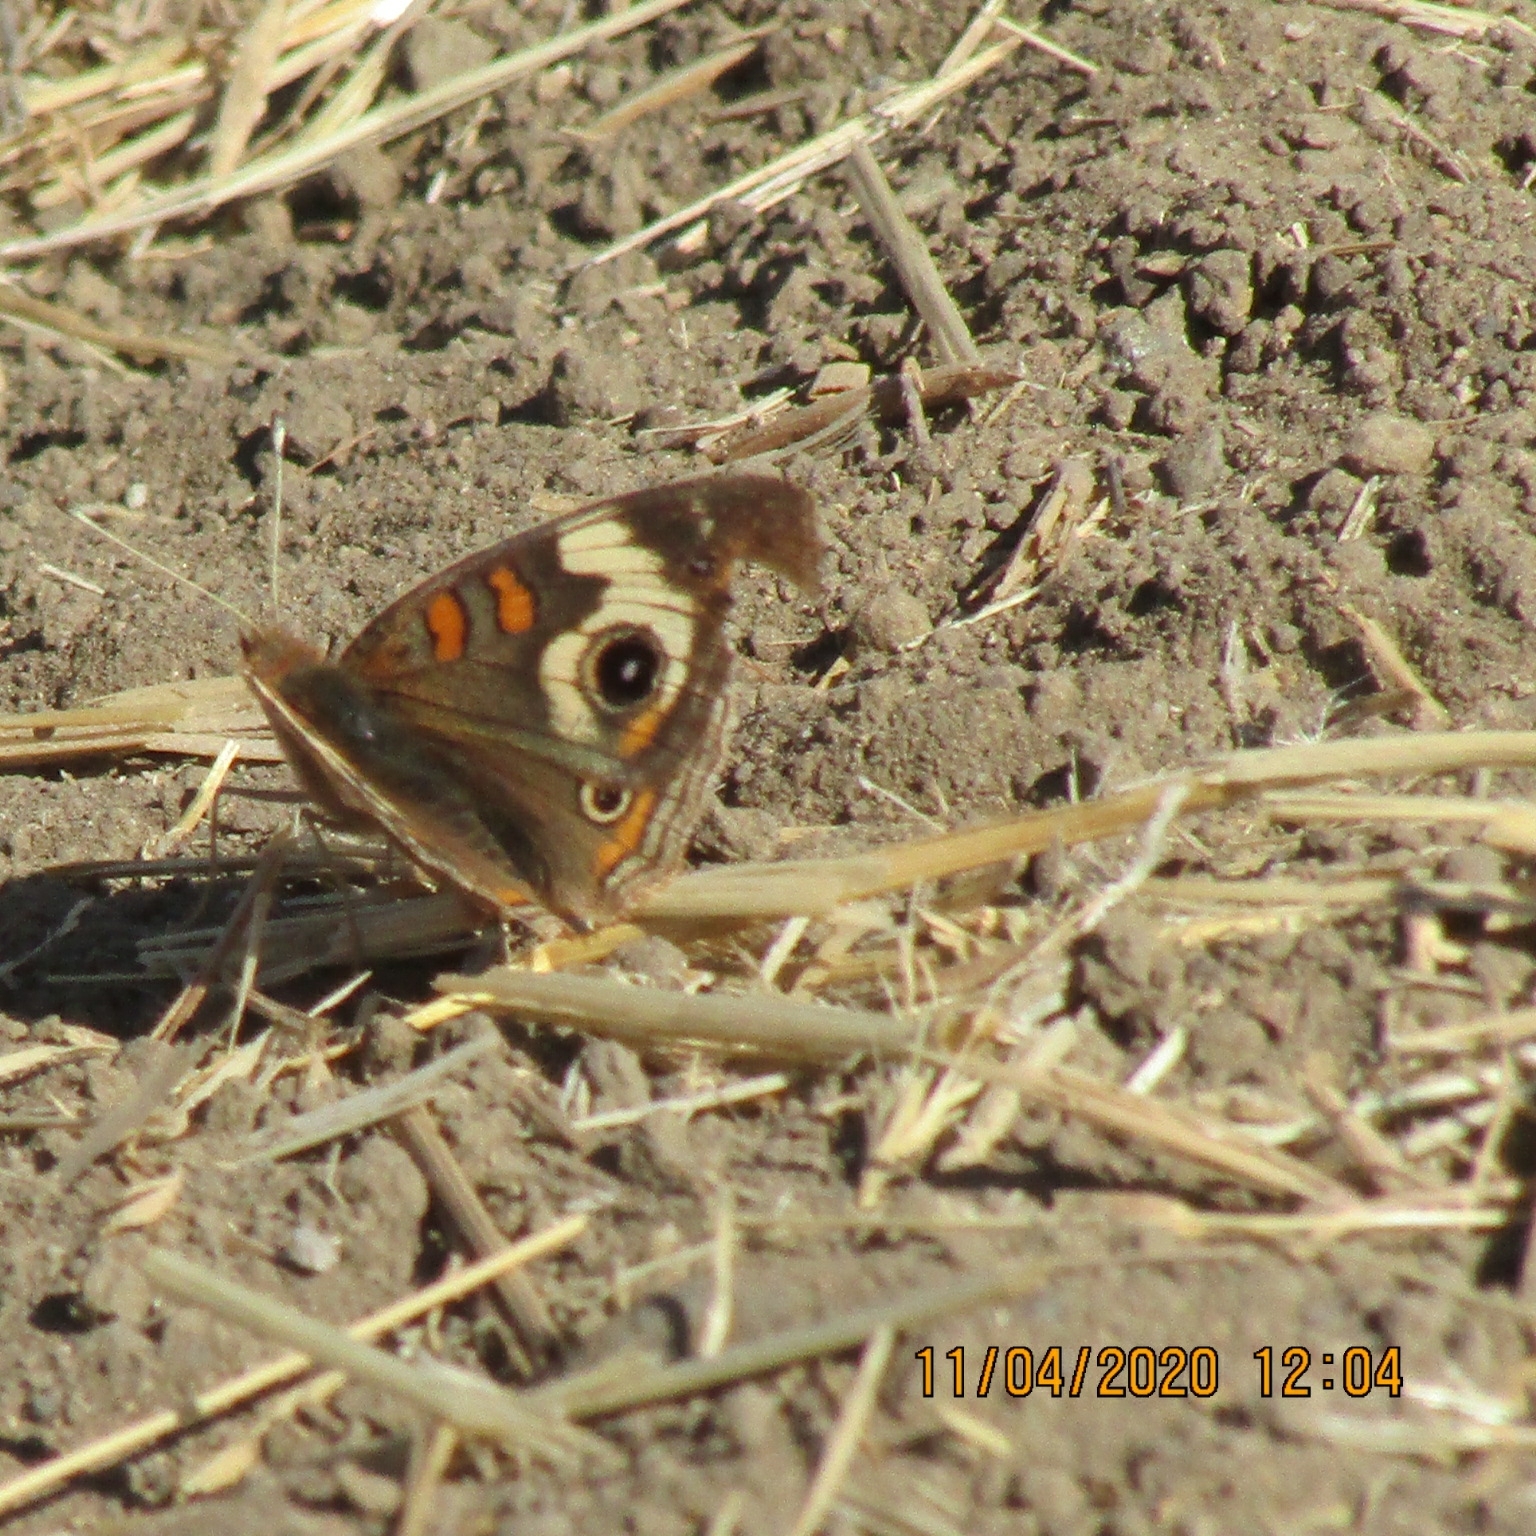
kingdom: Animalia
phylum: Arthropoda
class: Insecta
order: Lepidoptera
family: Nymphalidae
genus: Junonia
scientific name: Junonia grisea
